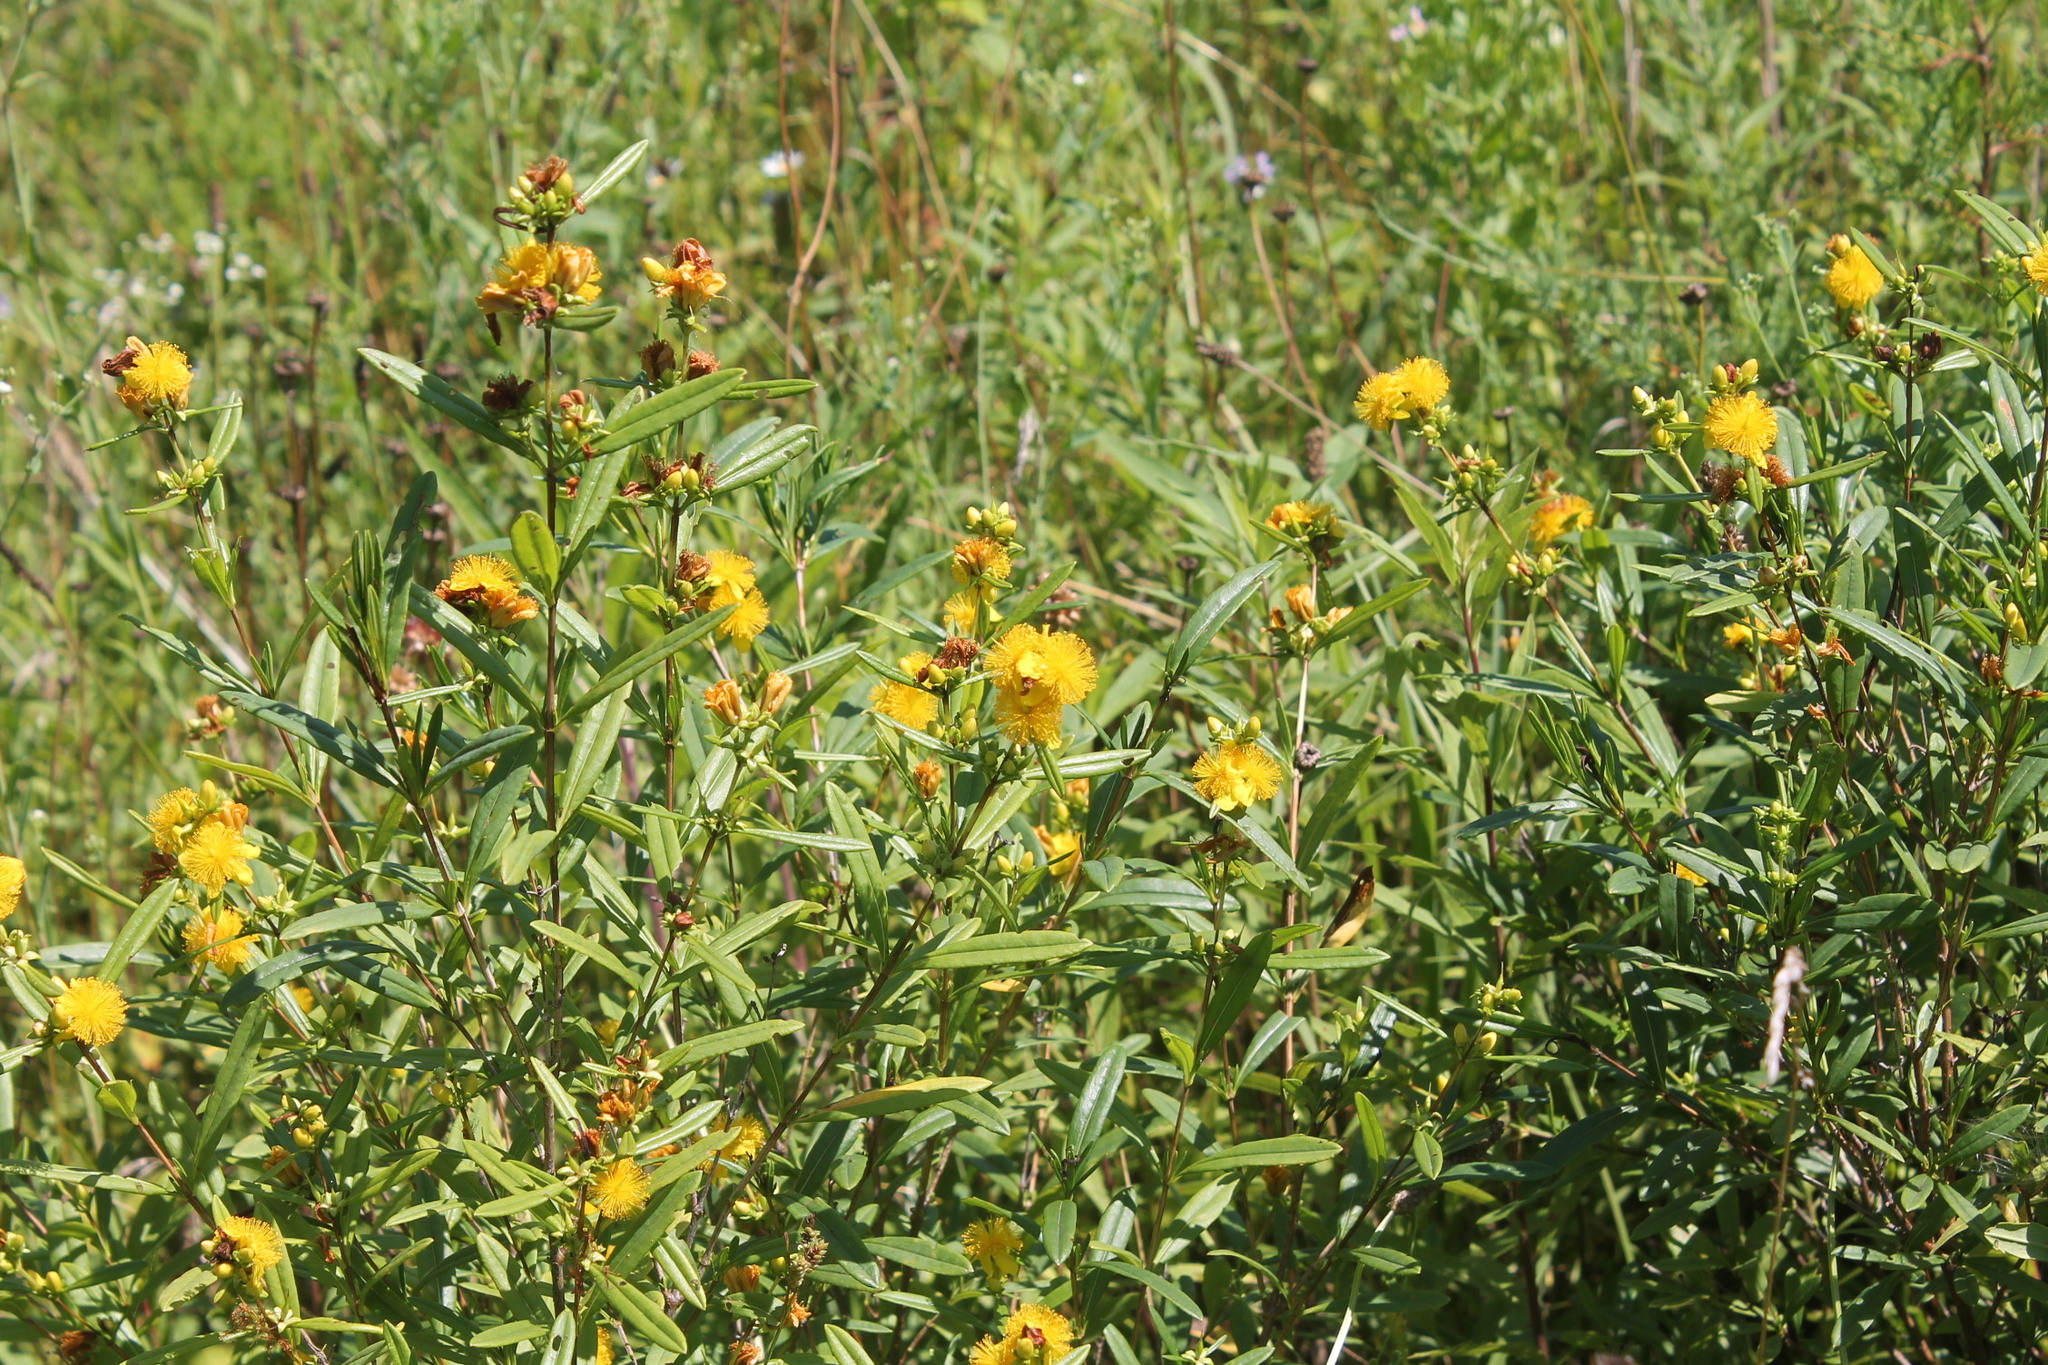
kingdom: Plantae
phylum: Tracheophyta
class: Magnoliopsida
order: Malpighiales
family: Hypericaceae
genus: Hypericum
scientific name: Hypericum prolificum
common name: Shrubby st. john's-wort
